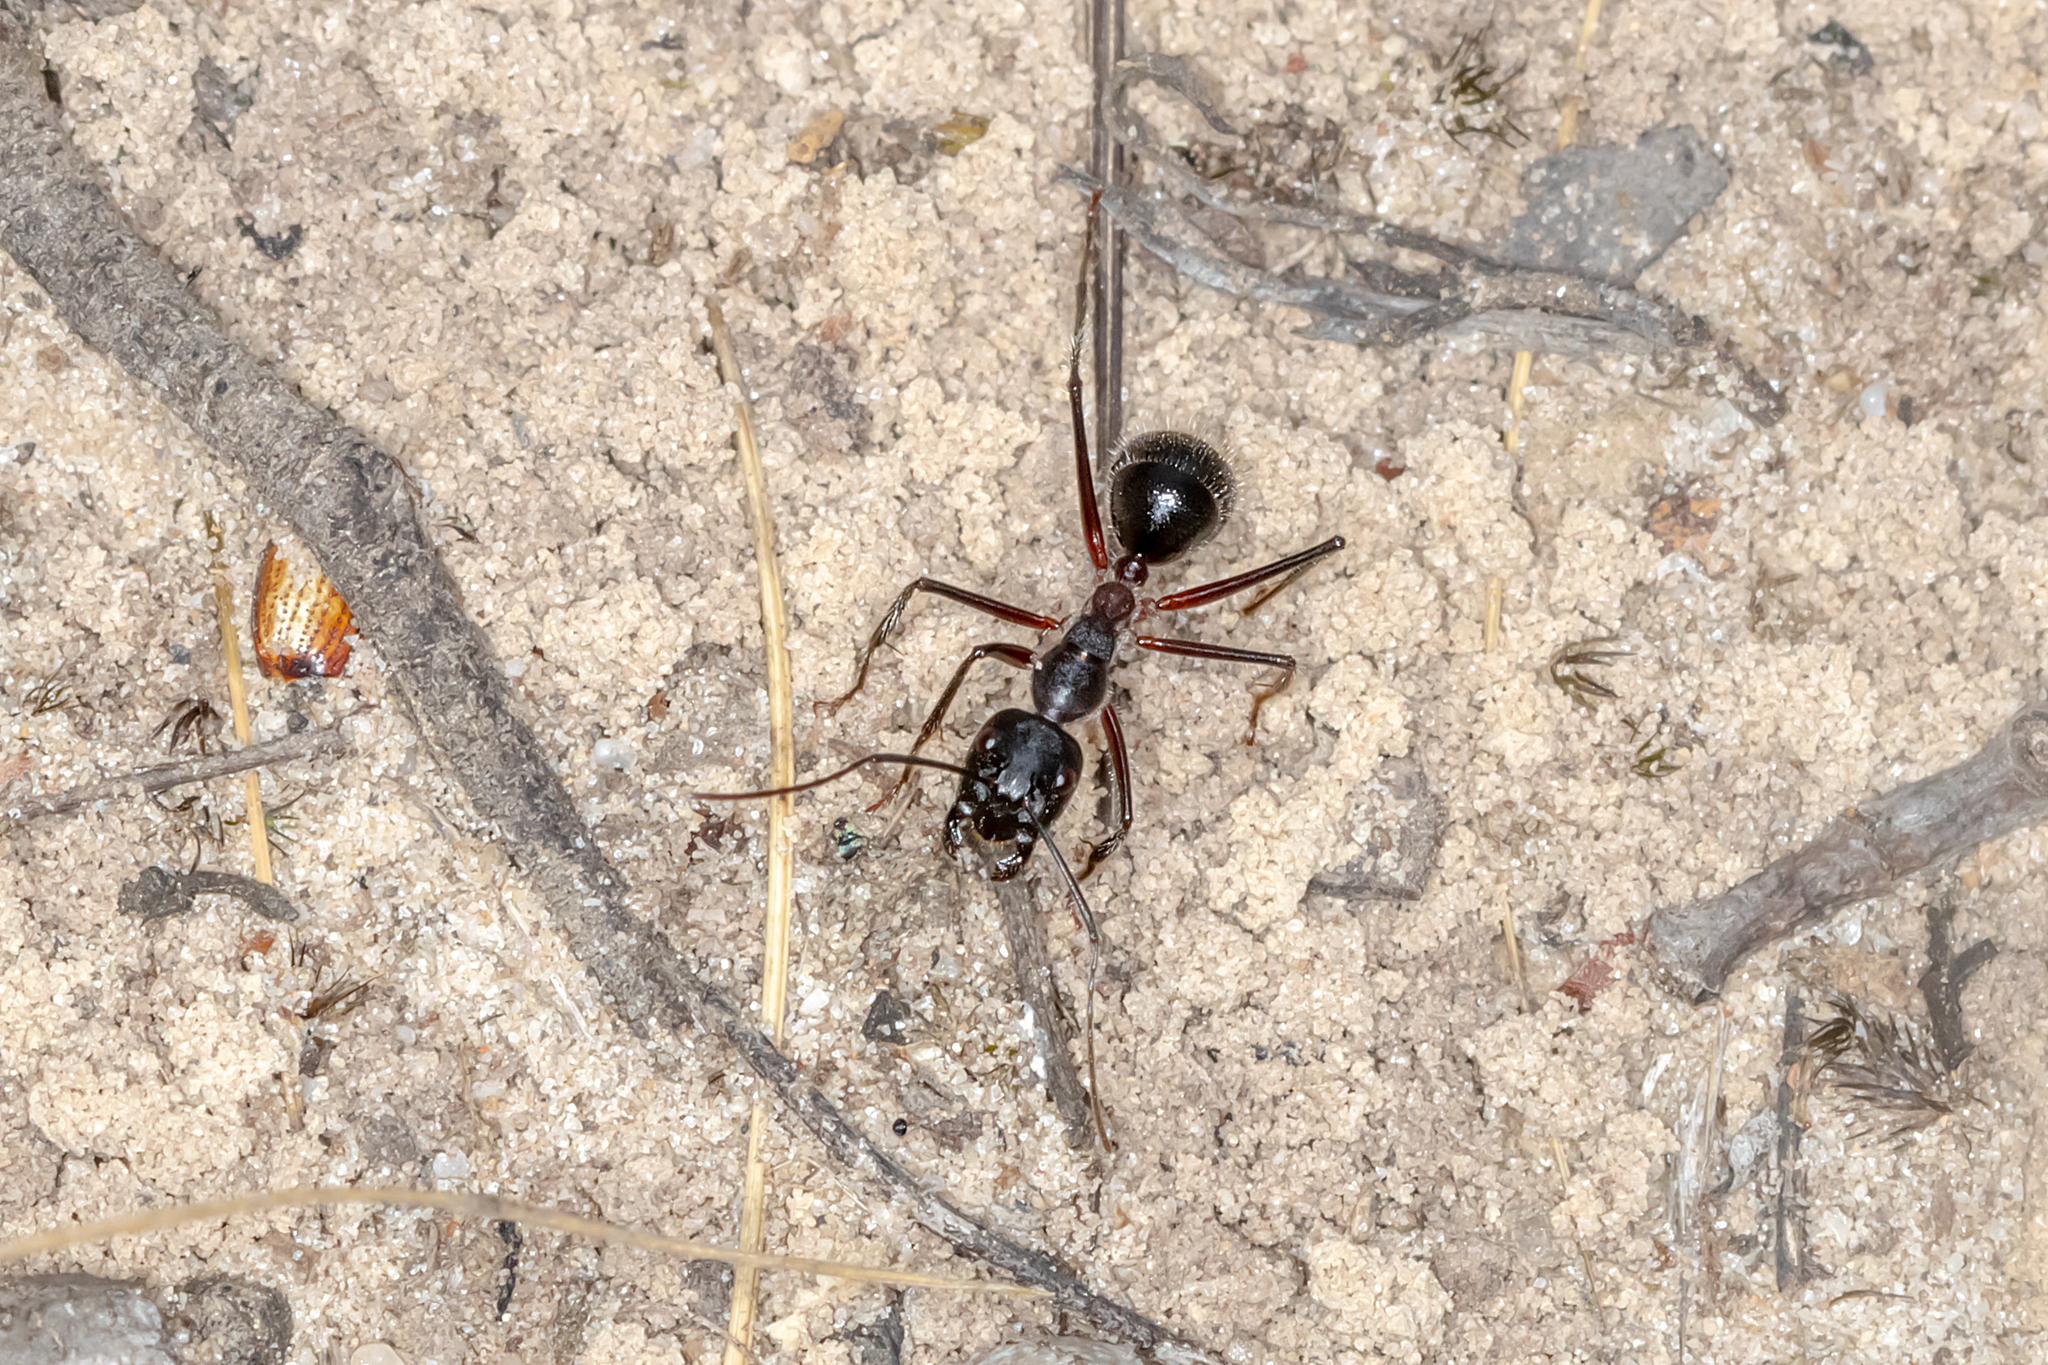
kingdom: Animalia
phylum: Arthropoda
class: Insecta
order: Hymenoptera
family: Formicidae
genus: Camponotus
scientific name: Camponotus intrepidus
